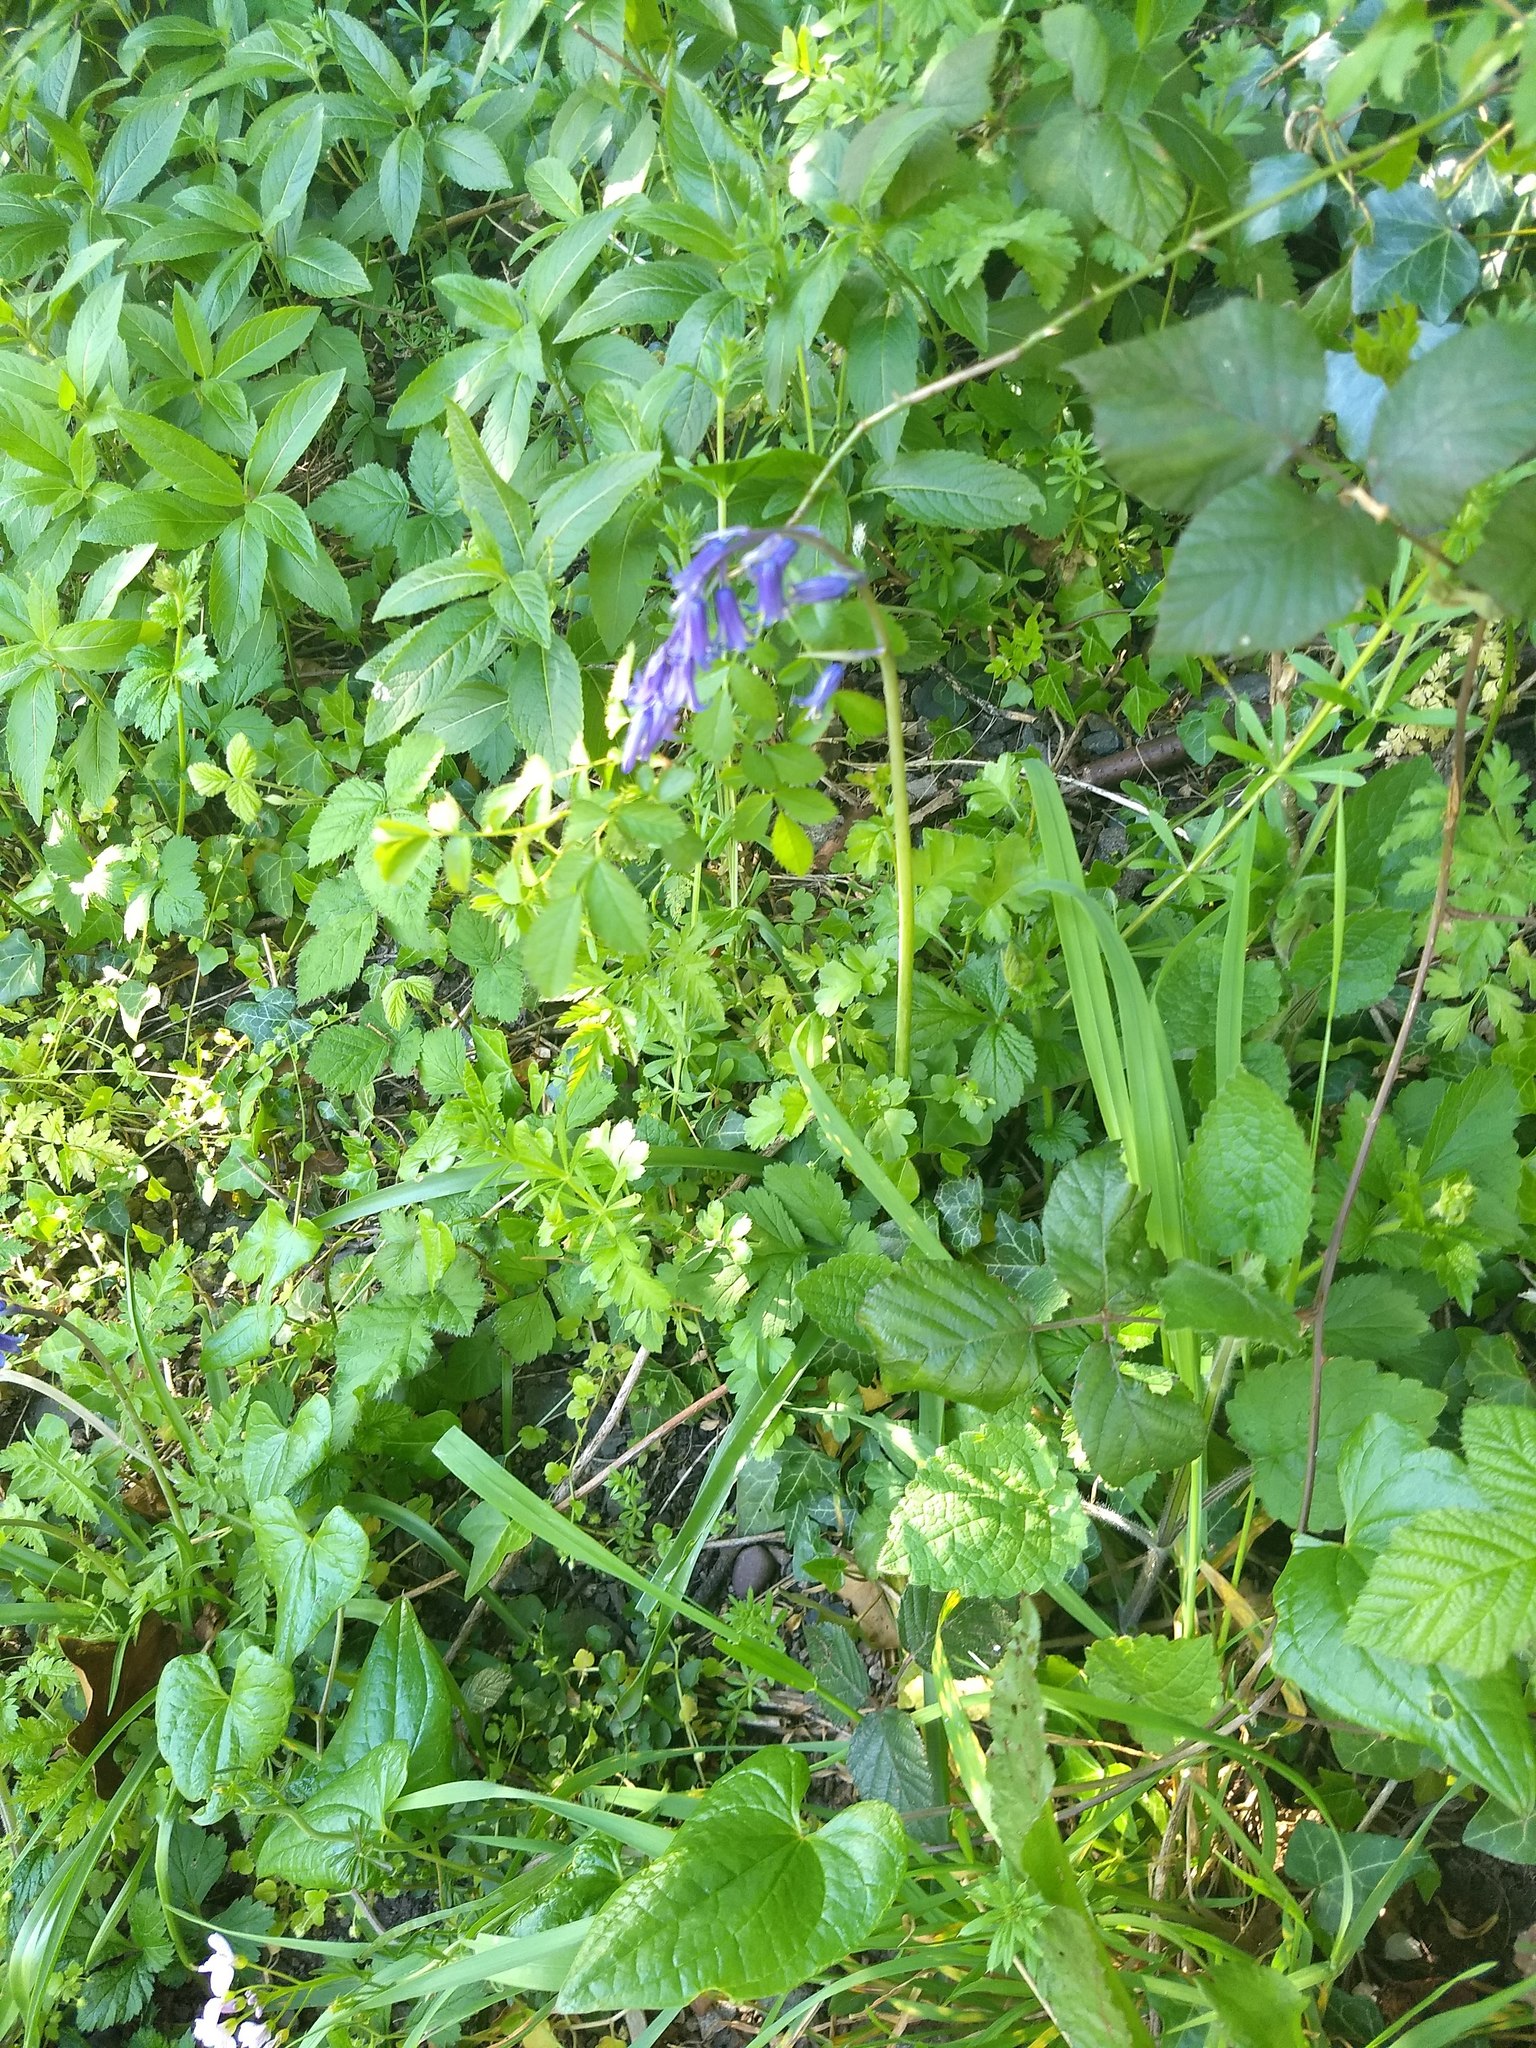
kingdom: Plantae
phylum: Tracheophyta
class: Liliopsida
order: Asparagales
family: Asparagaceae
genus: Hyacinthoides
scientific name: Hyacinthoides non-scripta
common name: Bluebell
